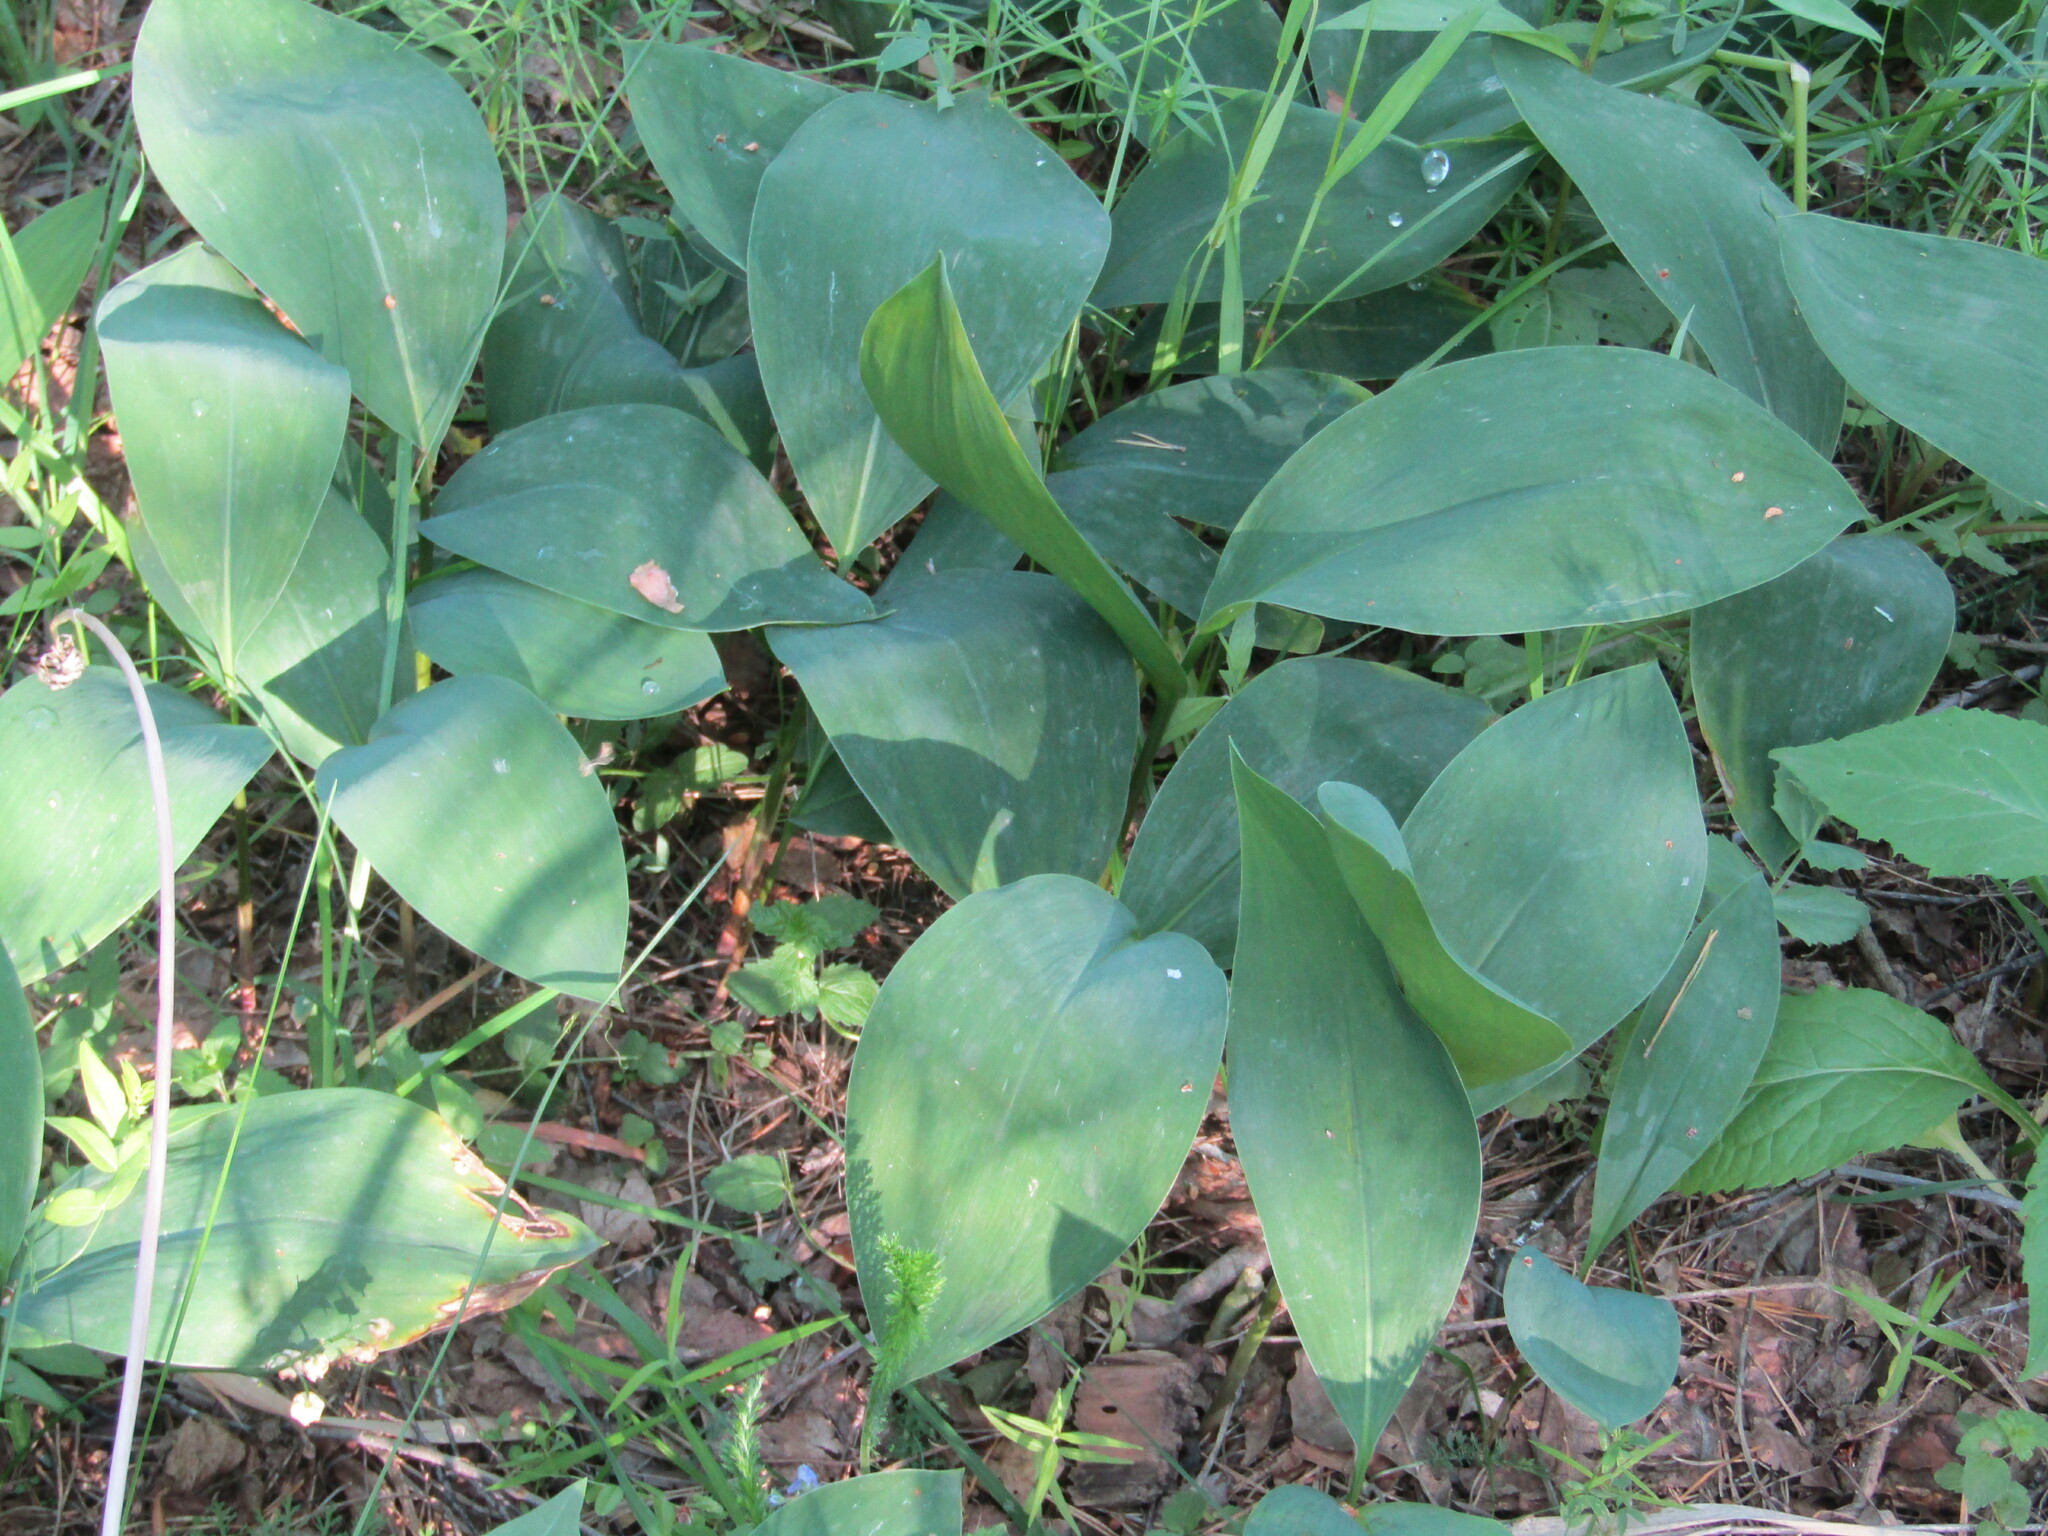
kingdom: Plantae
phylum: Tracheophyta
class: Liliopsida
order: Asparagales
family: Asparagaceae
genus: Convallaria
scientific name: Convallaria majalis
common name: Lily-of-the-valley
